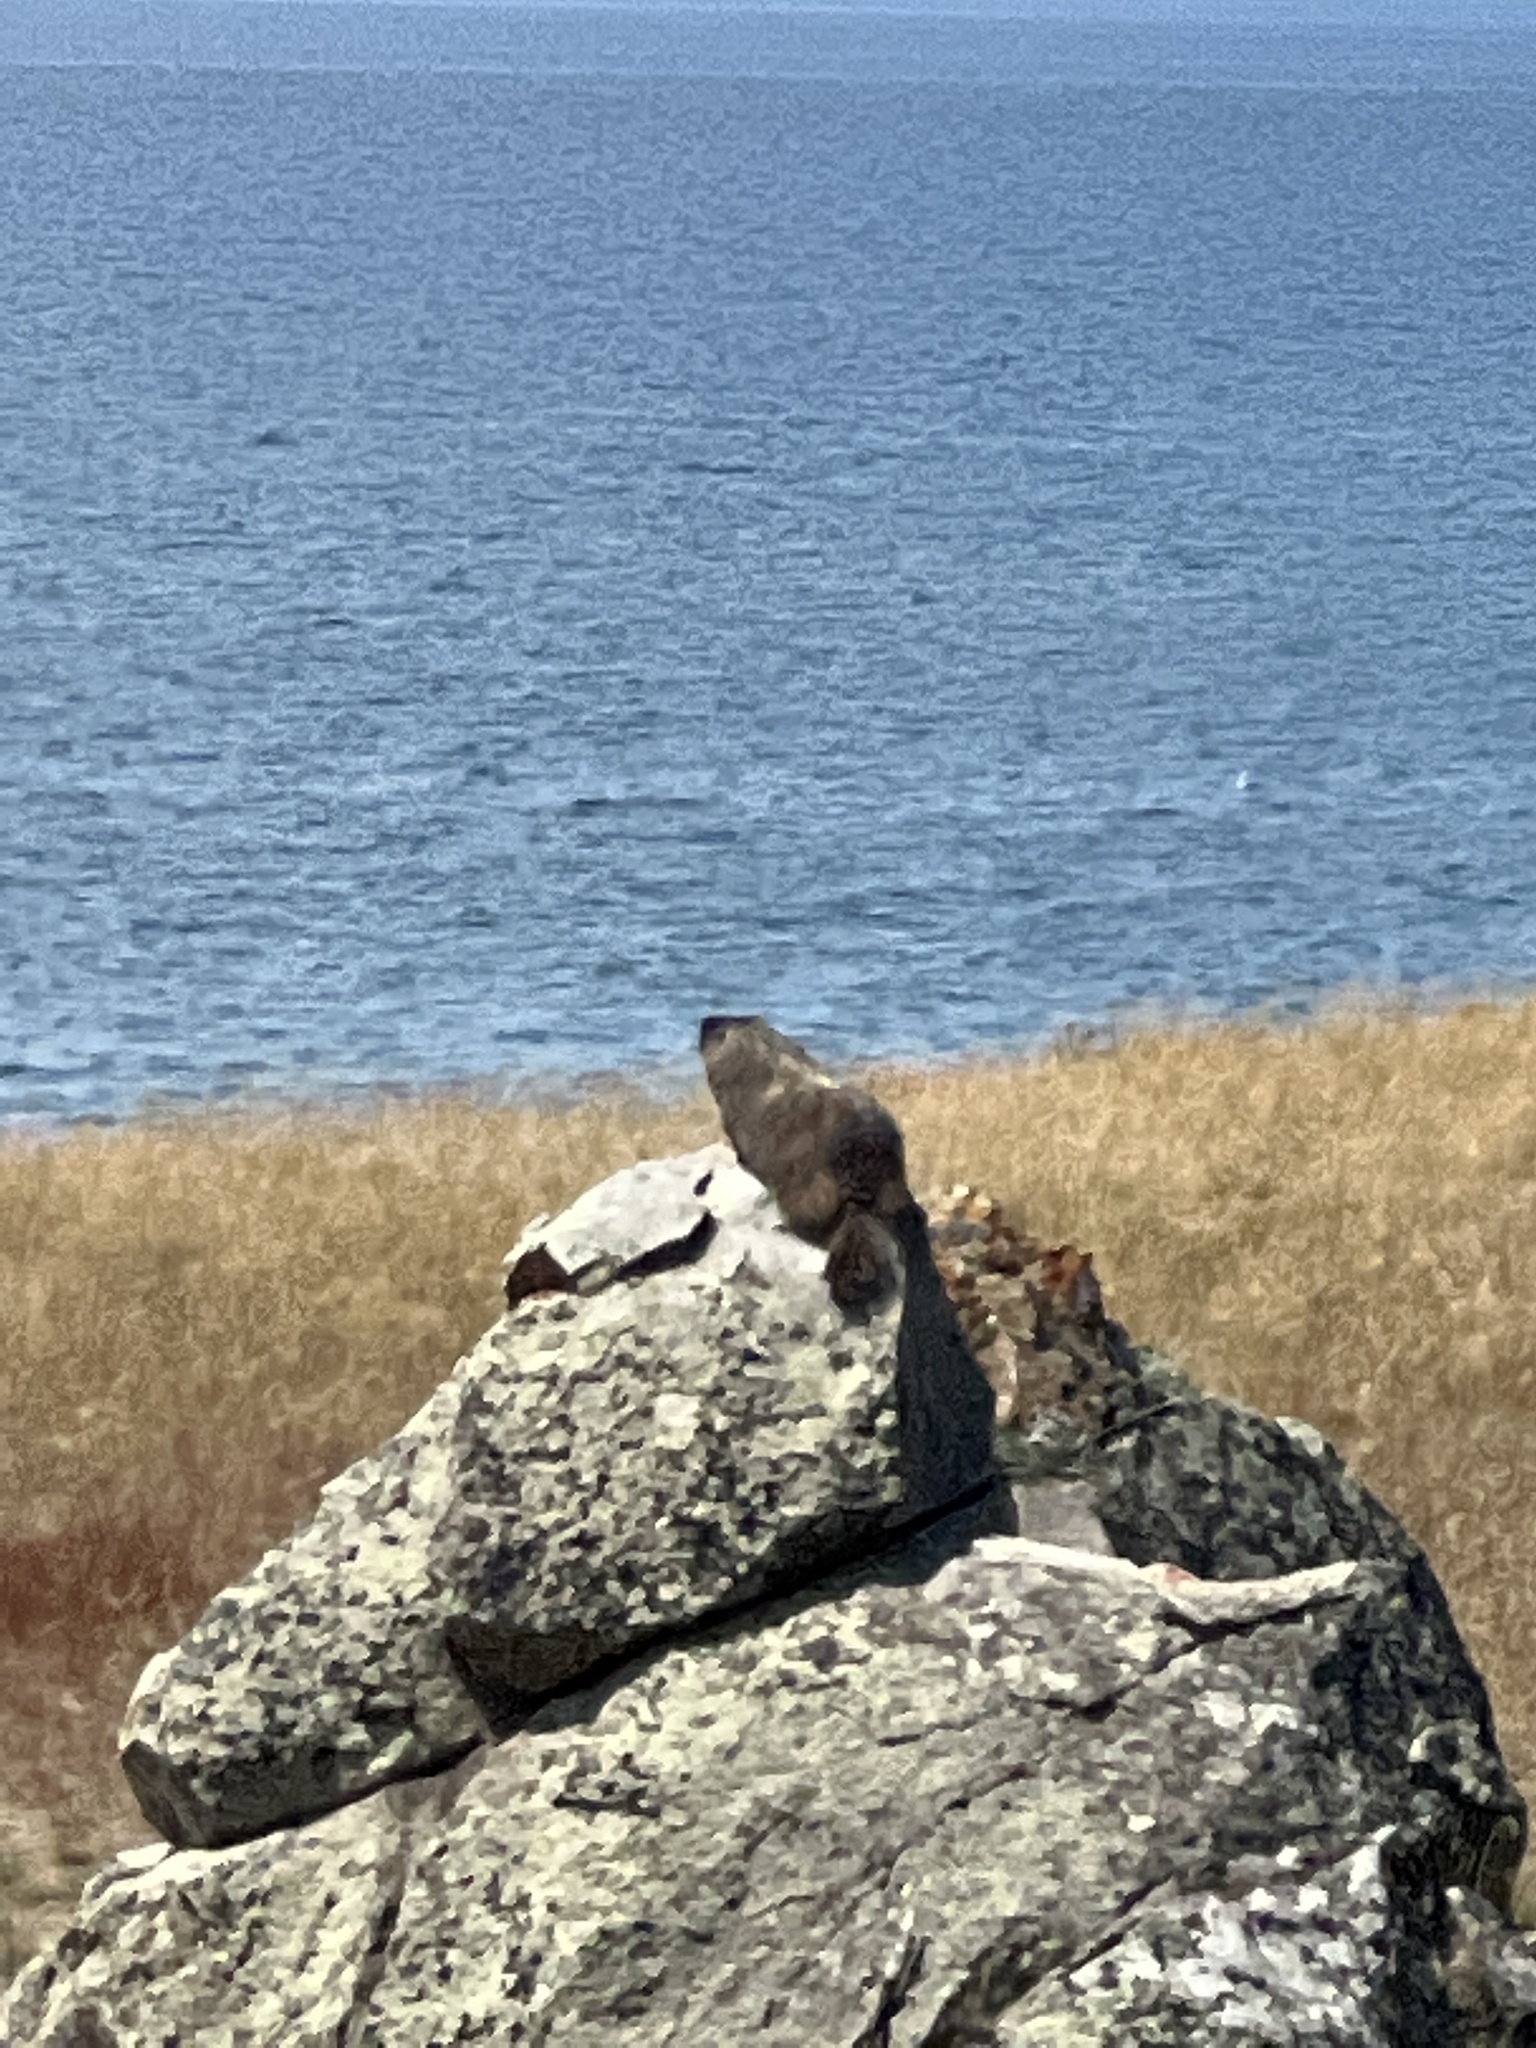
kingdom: Animalia
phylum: Chordata
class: Mammalia
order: Rodentia
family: Sciuridae
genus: Marmota
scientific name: Marmota flaviventris
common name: Yellow-bellied marmot
